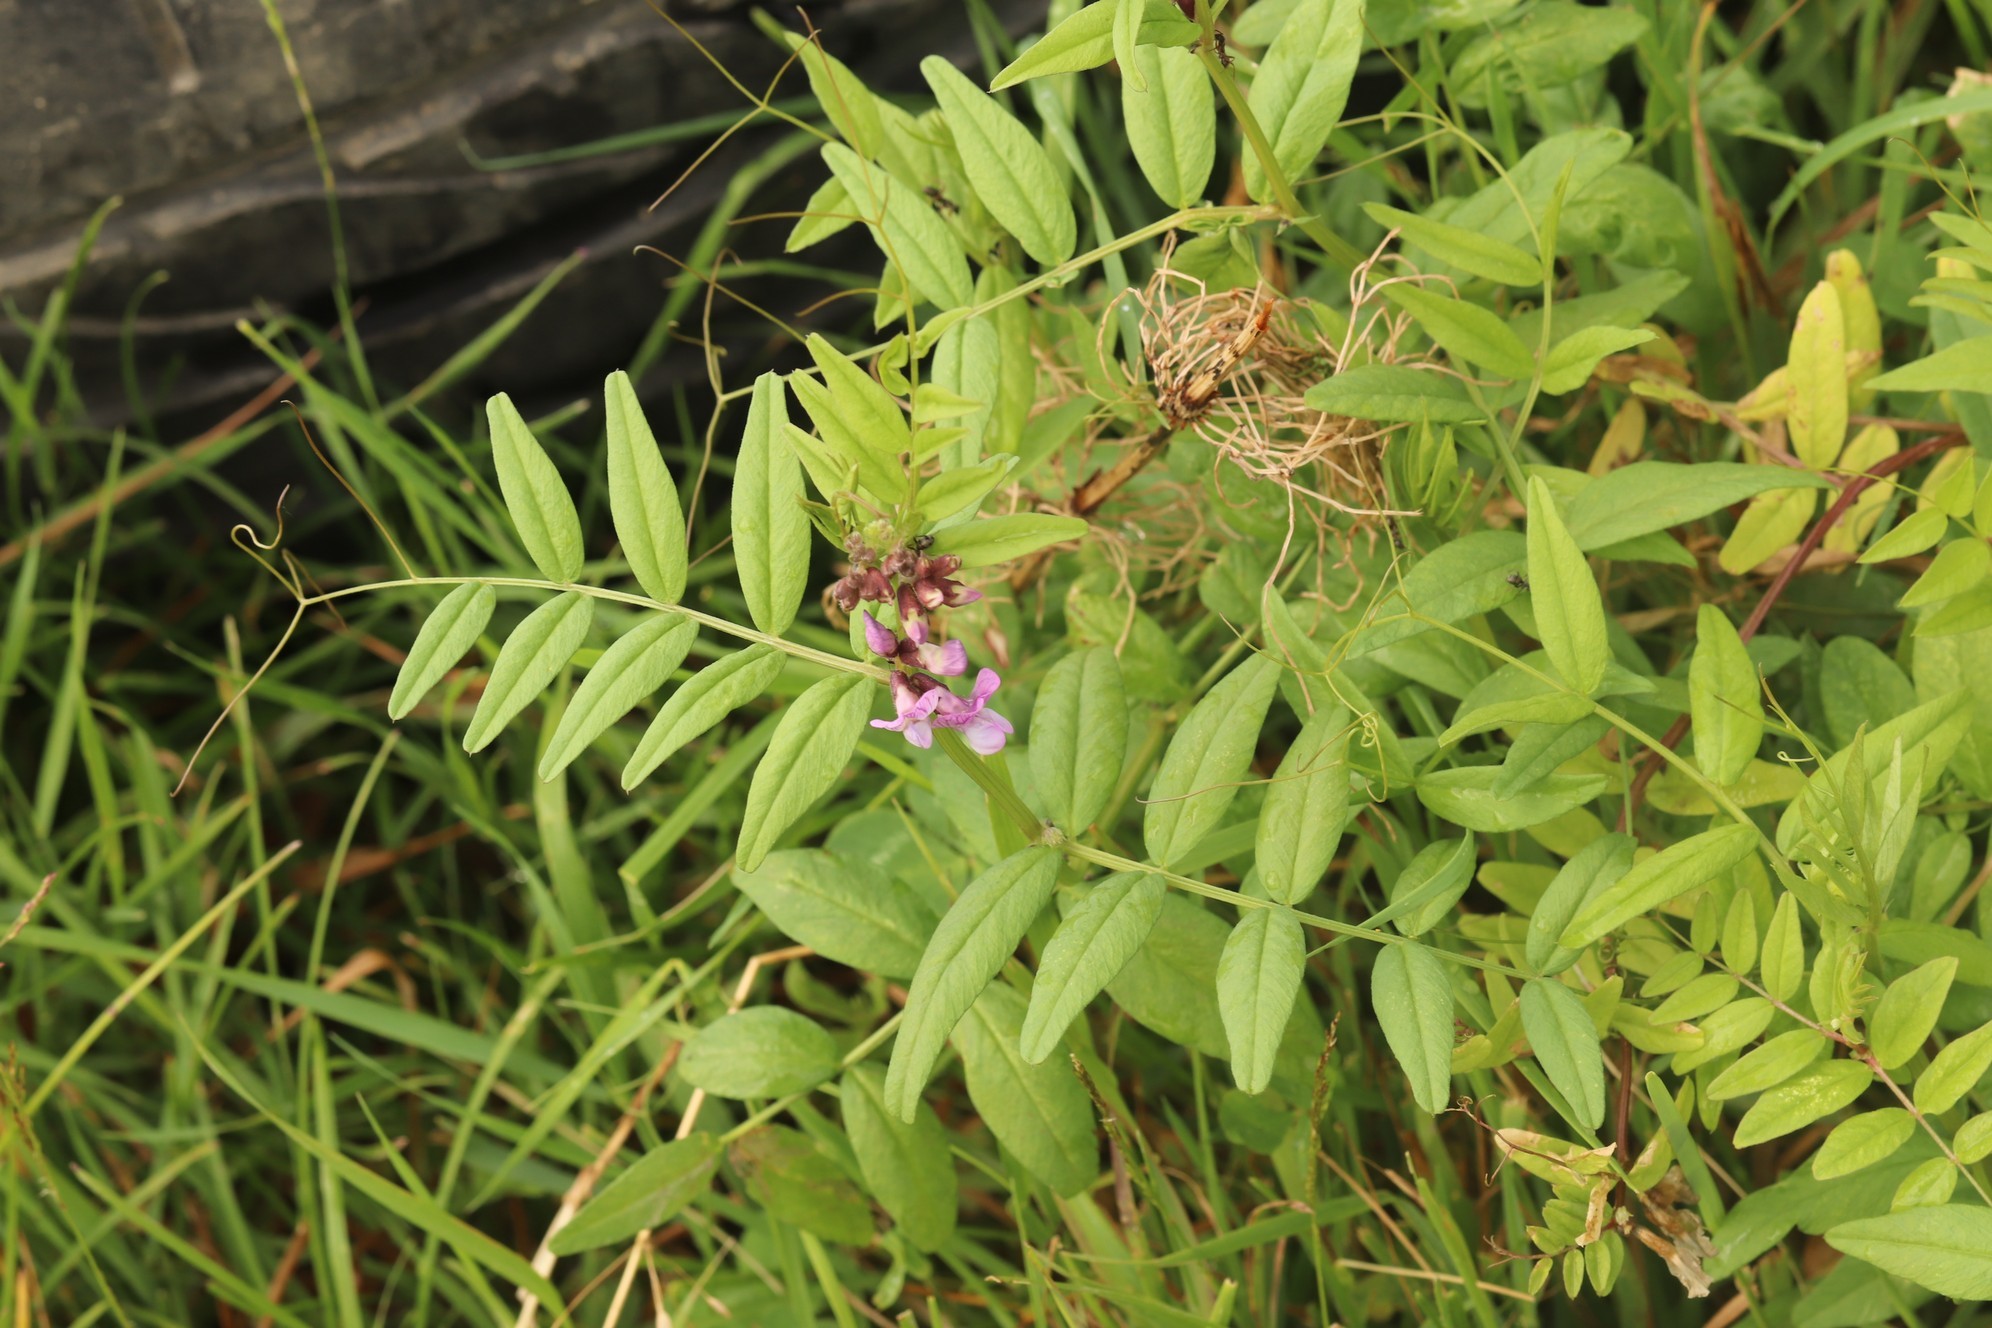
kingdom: Plantae
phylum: Tracheophyta
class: Magnoliopsida
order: Fabales
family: Fabaceae
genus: Vicia
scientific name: Vicia sepium
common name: Bush vetch
